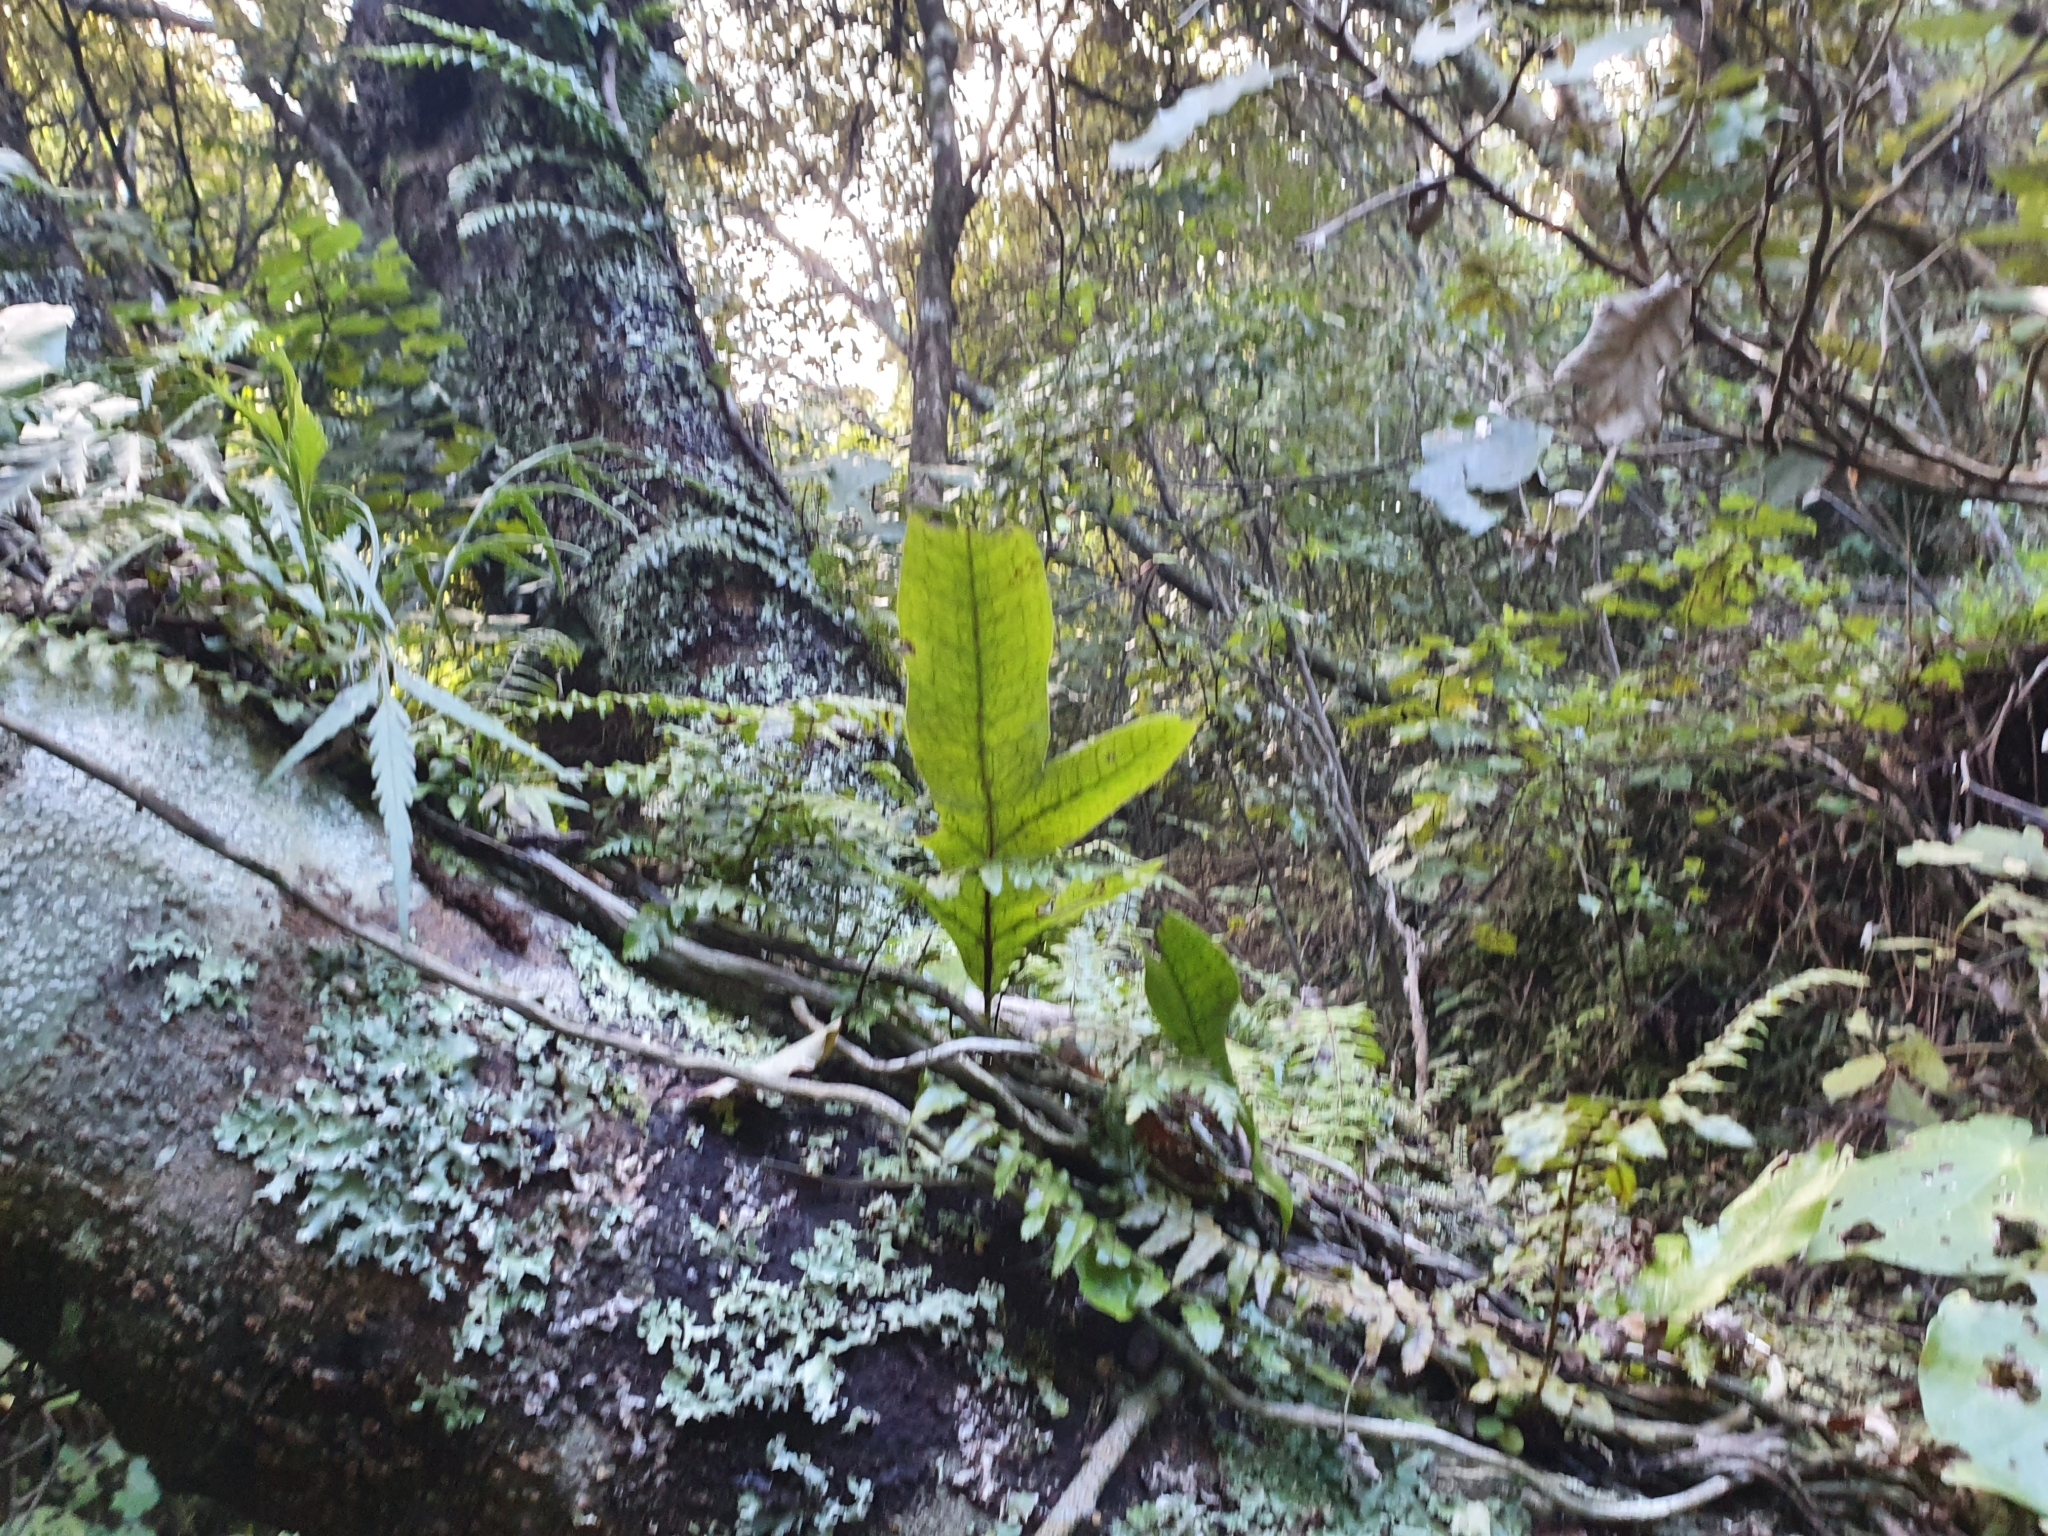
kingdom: Plantae
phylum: Tracheophyta
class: Polypodiopsida
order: Polypodiales
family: Polypodiaceae
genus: Lecanopteris
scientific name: Lecanopteris pustulata
